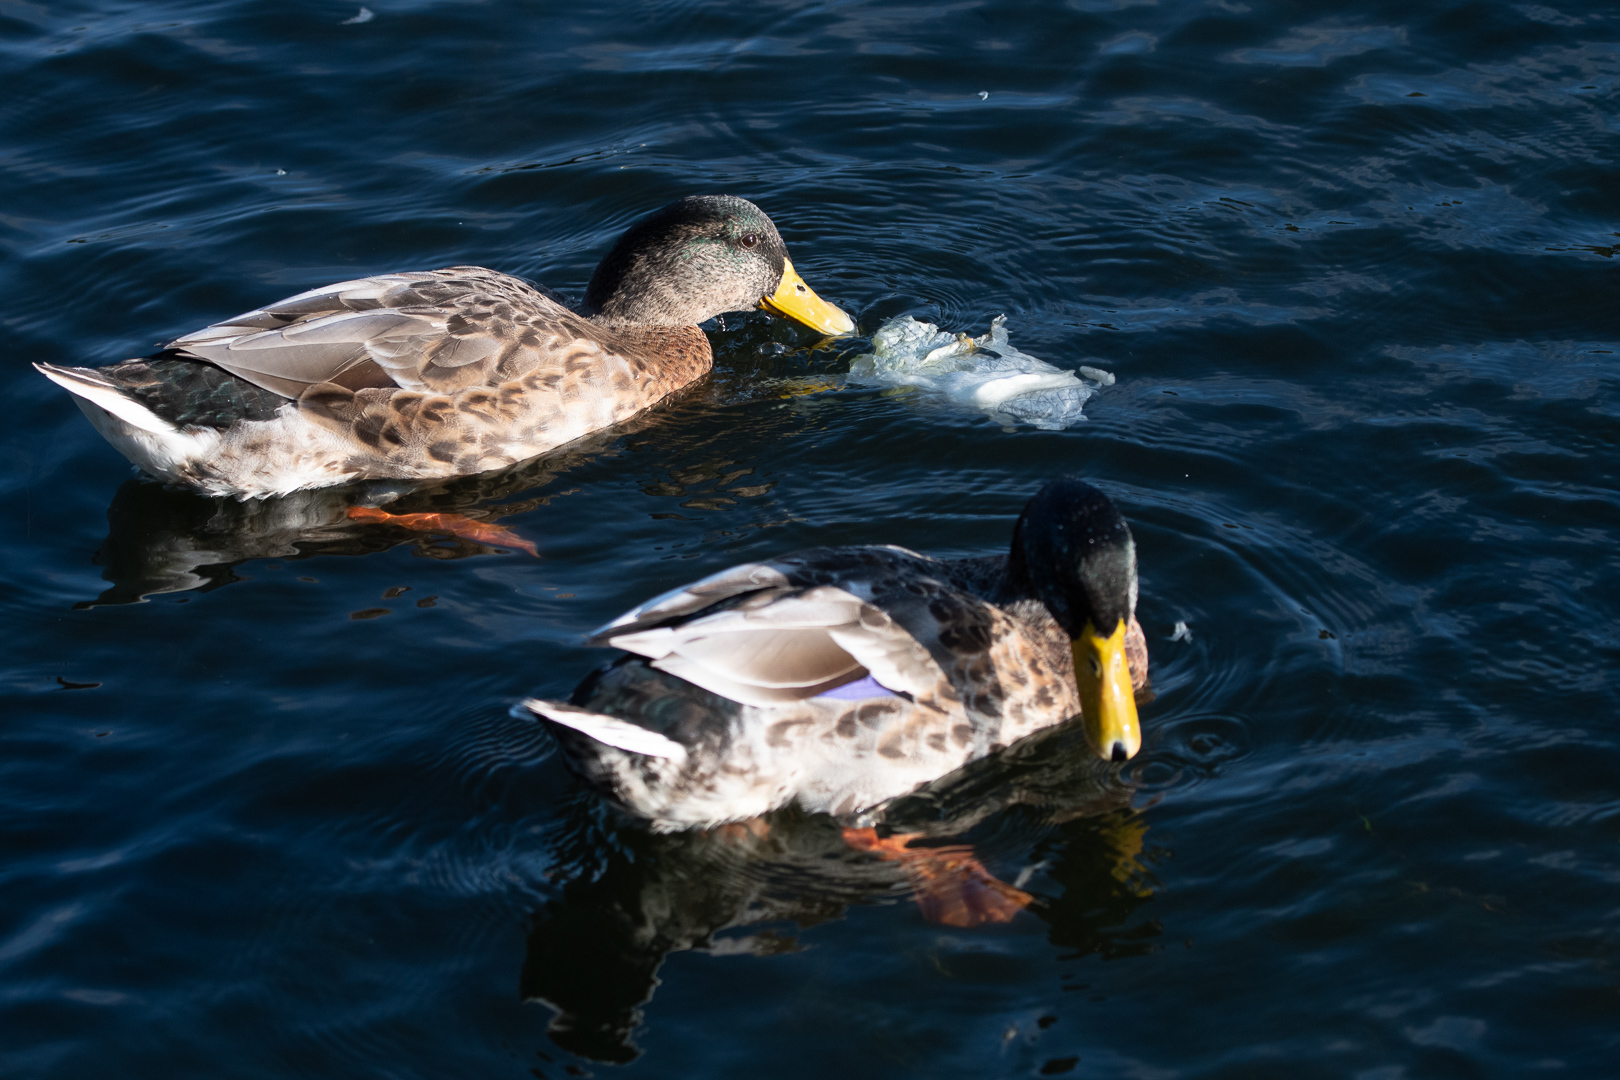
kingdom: Animalia
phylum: Chordata
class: Aves
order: Anseriformes
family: Anatidae
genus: Anas
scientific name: Anas platyrhynchos
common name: Mallard
